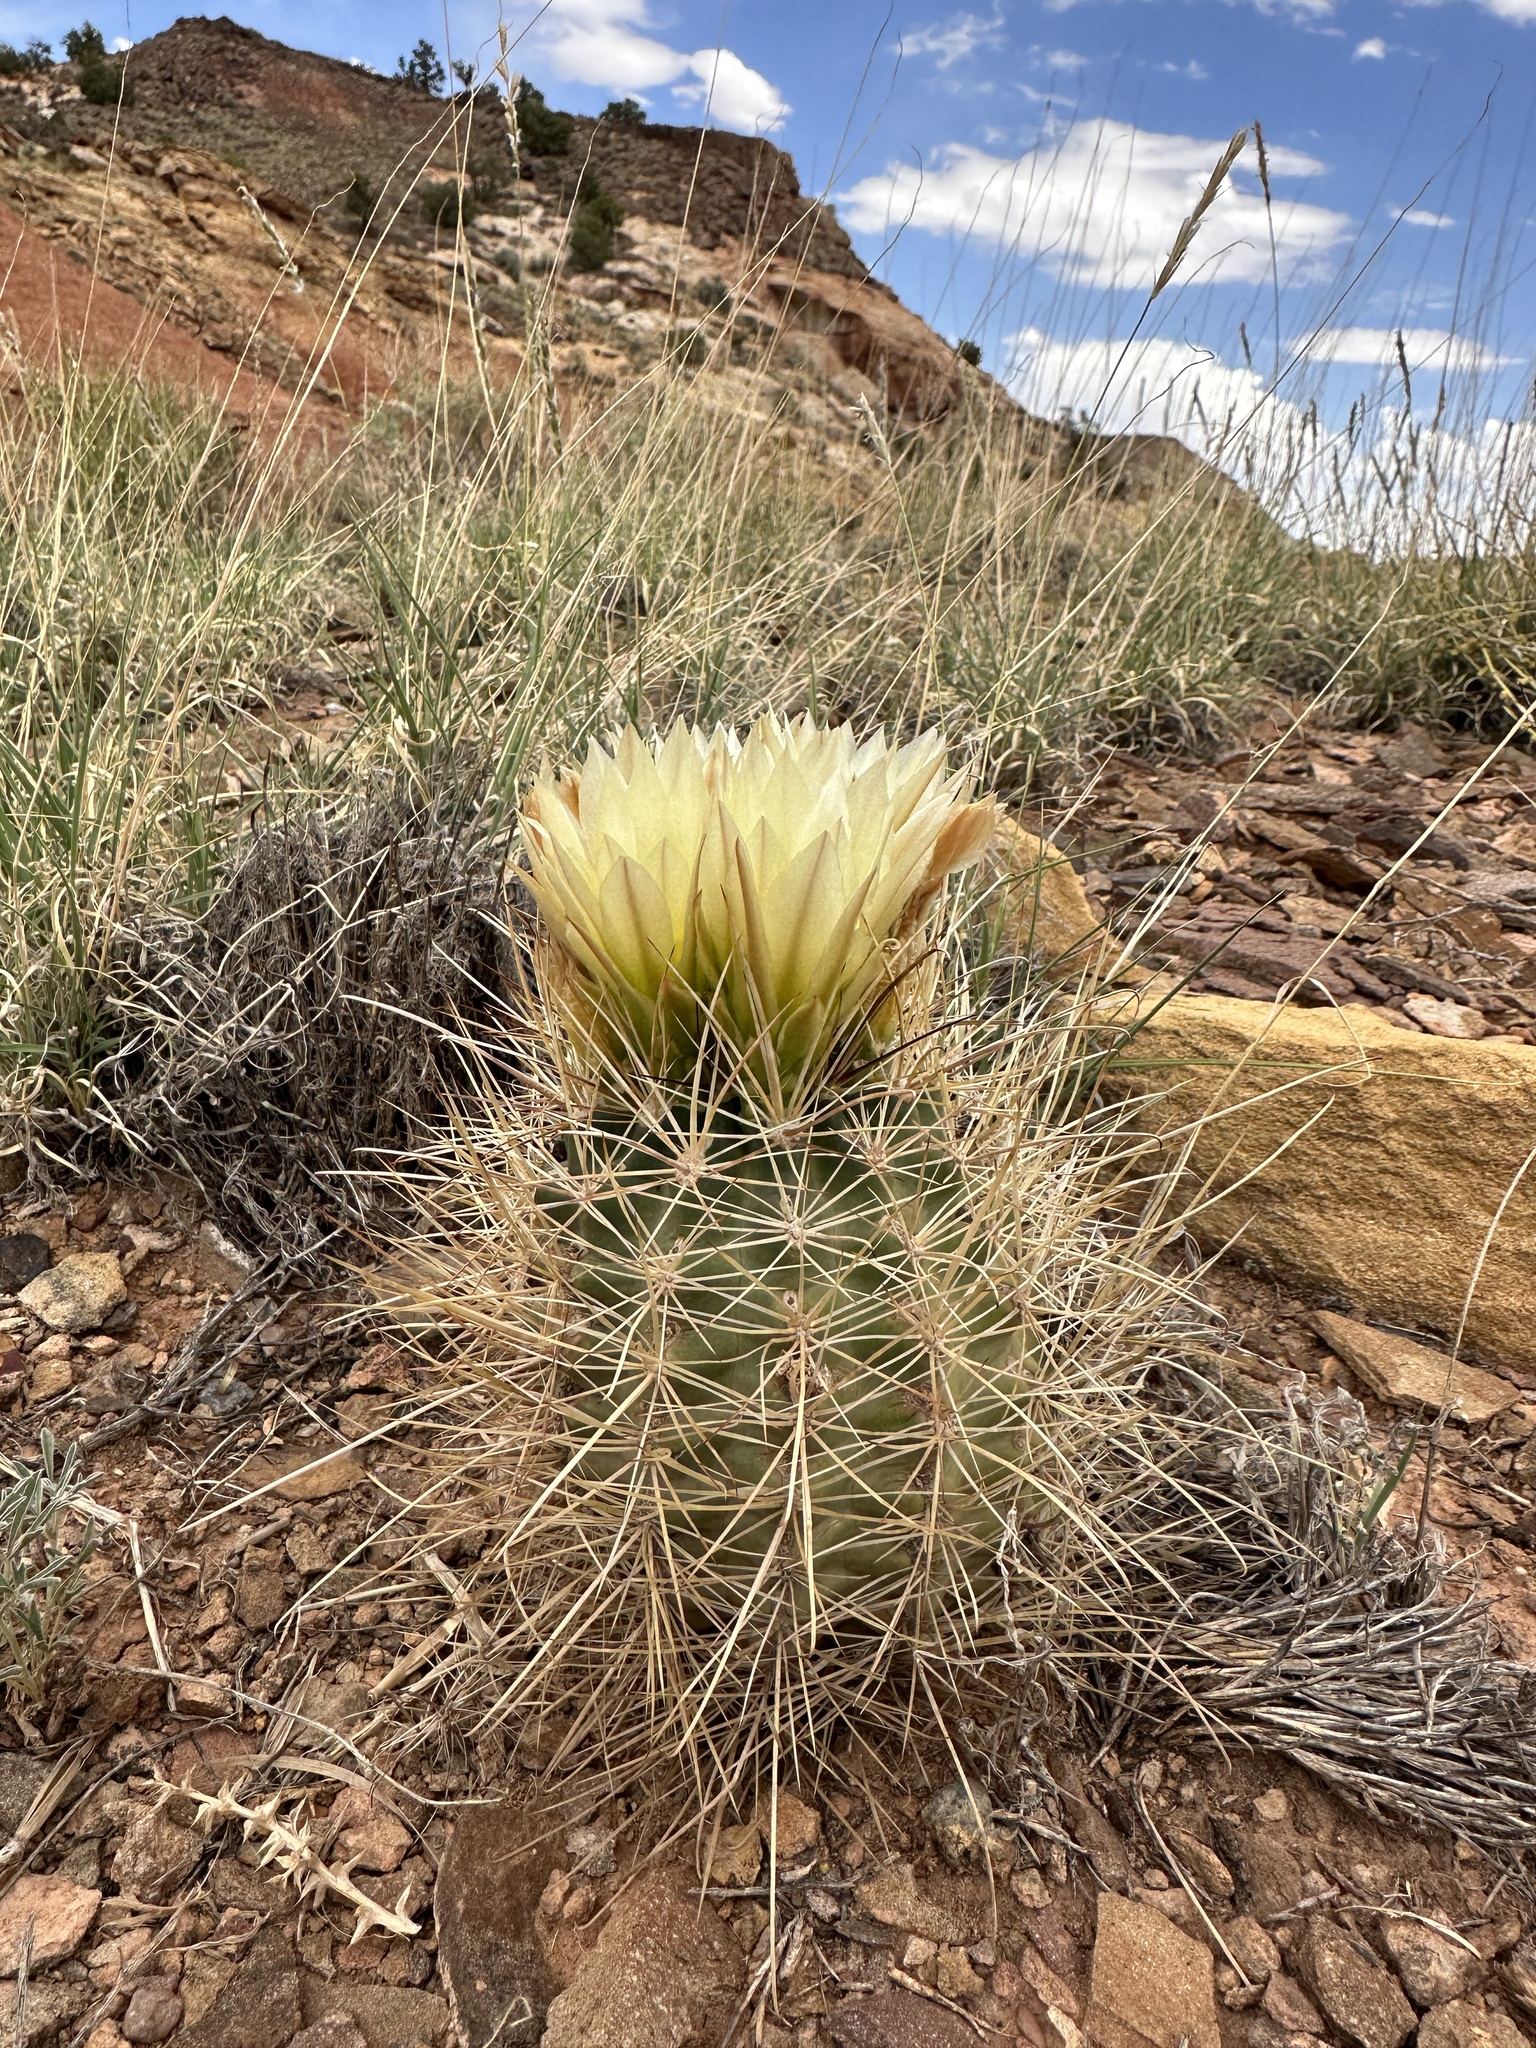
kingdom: Plantae
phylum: Tracheophyta
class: Magnoliopsida
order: Caryophyllales
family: Cactaceae
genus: Sclerocactus
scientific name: Sclerocactus parviflorus
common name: Small-flower fishhook cactus
